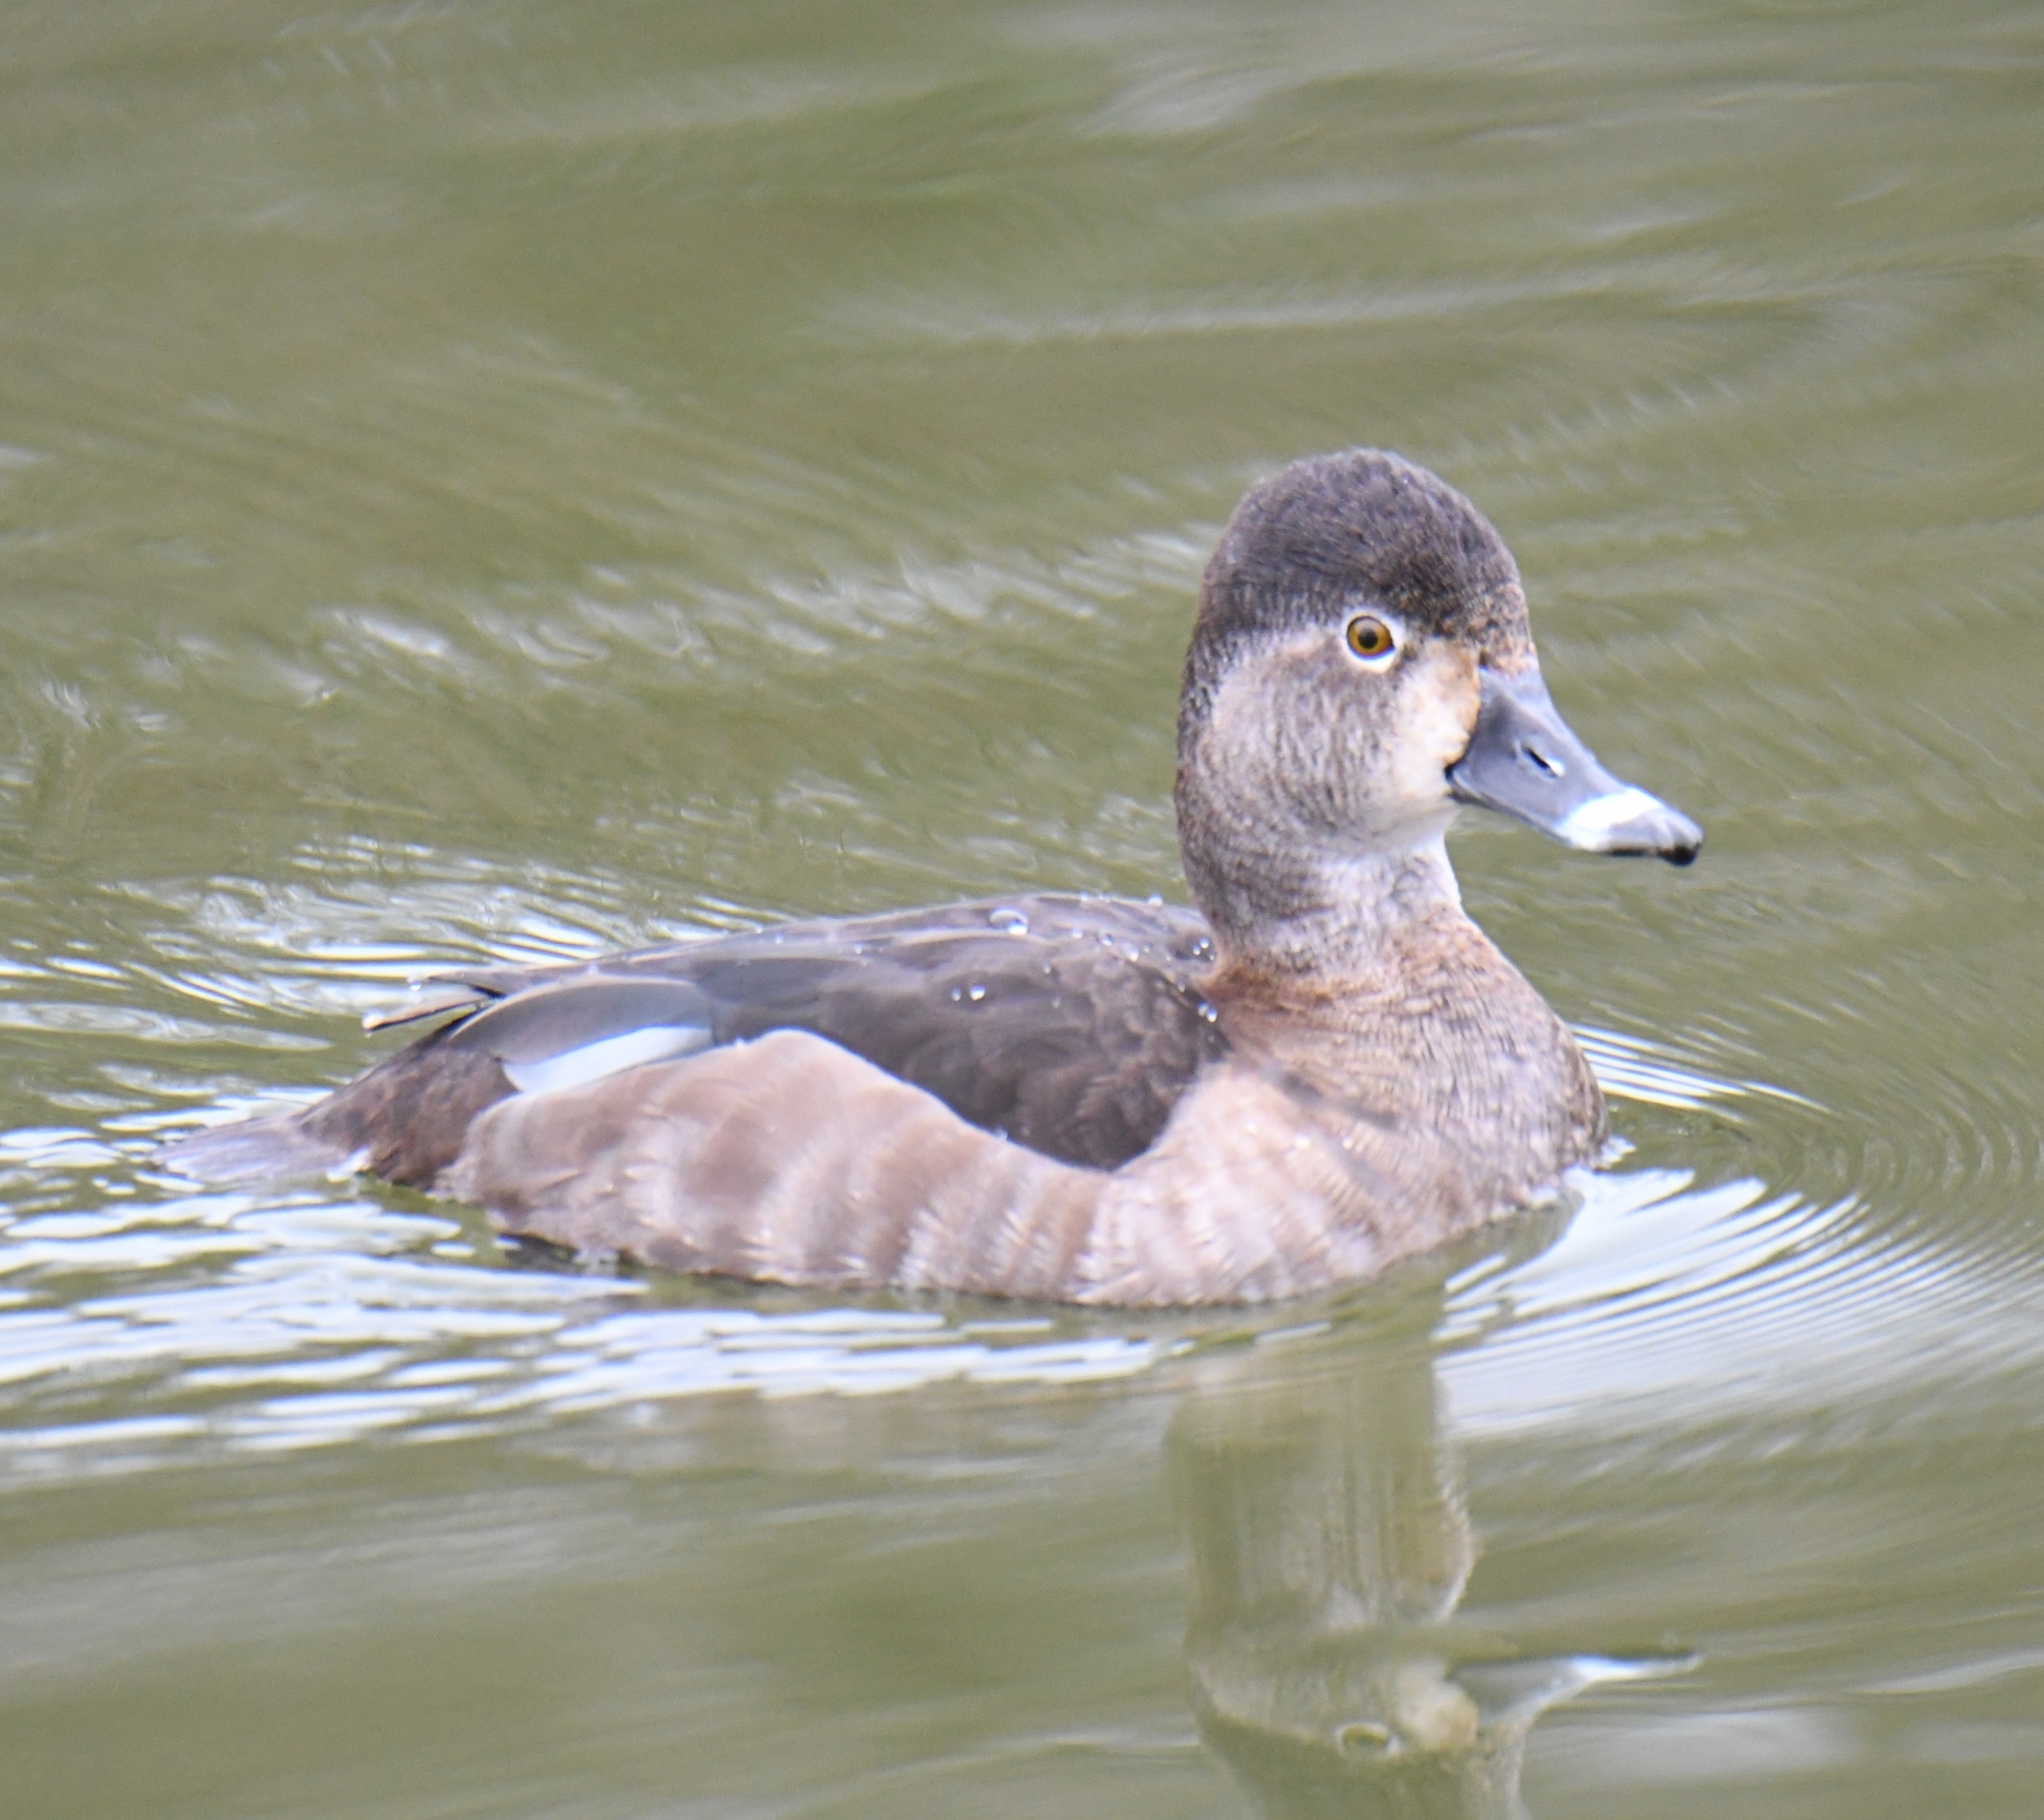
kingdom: Animalia
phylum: Chordata
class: Aves
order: Anseriformes
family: Anatidae
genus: Aythya
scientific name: Aythya collaris
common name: Ring-necked duck
